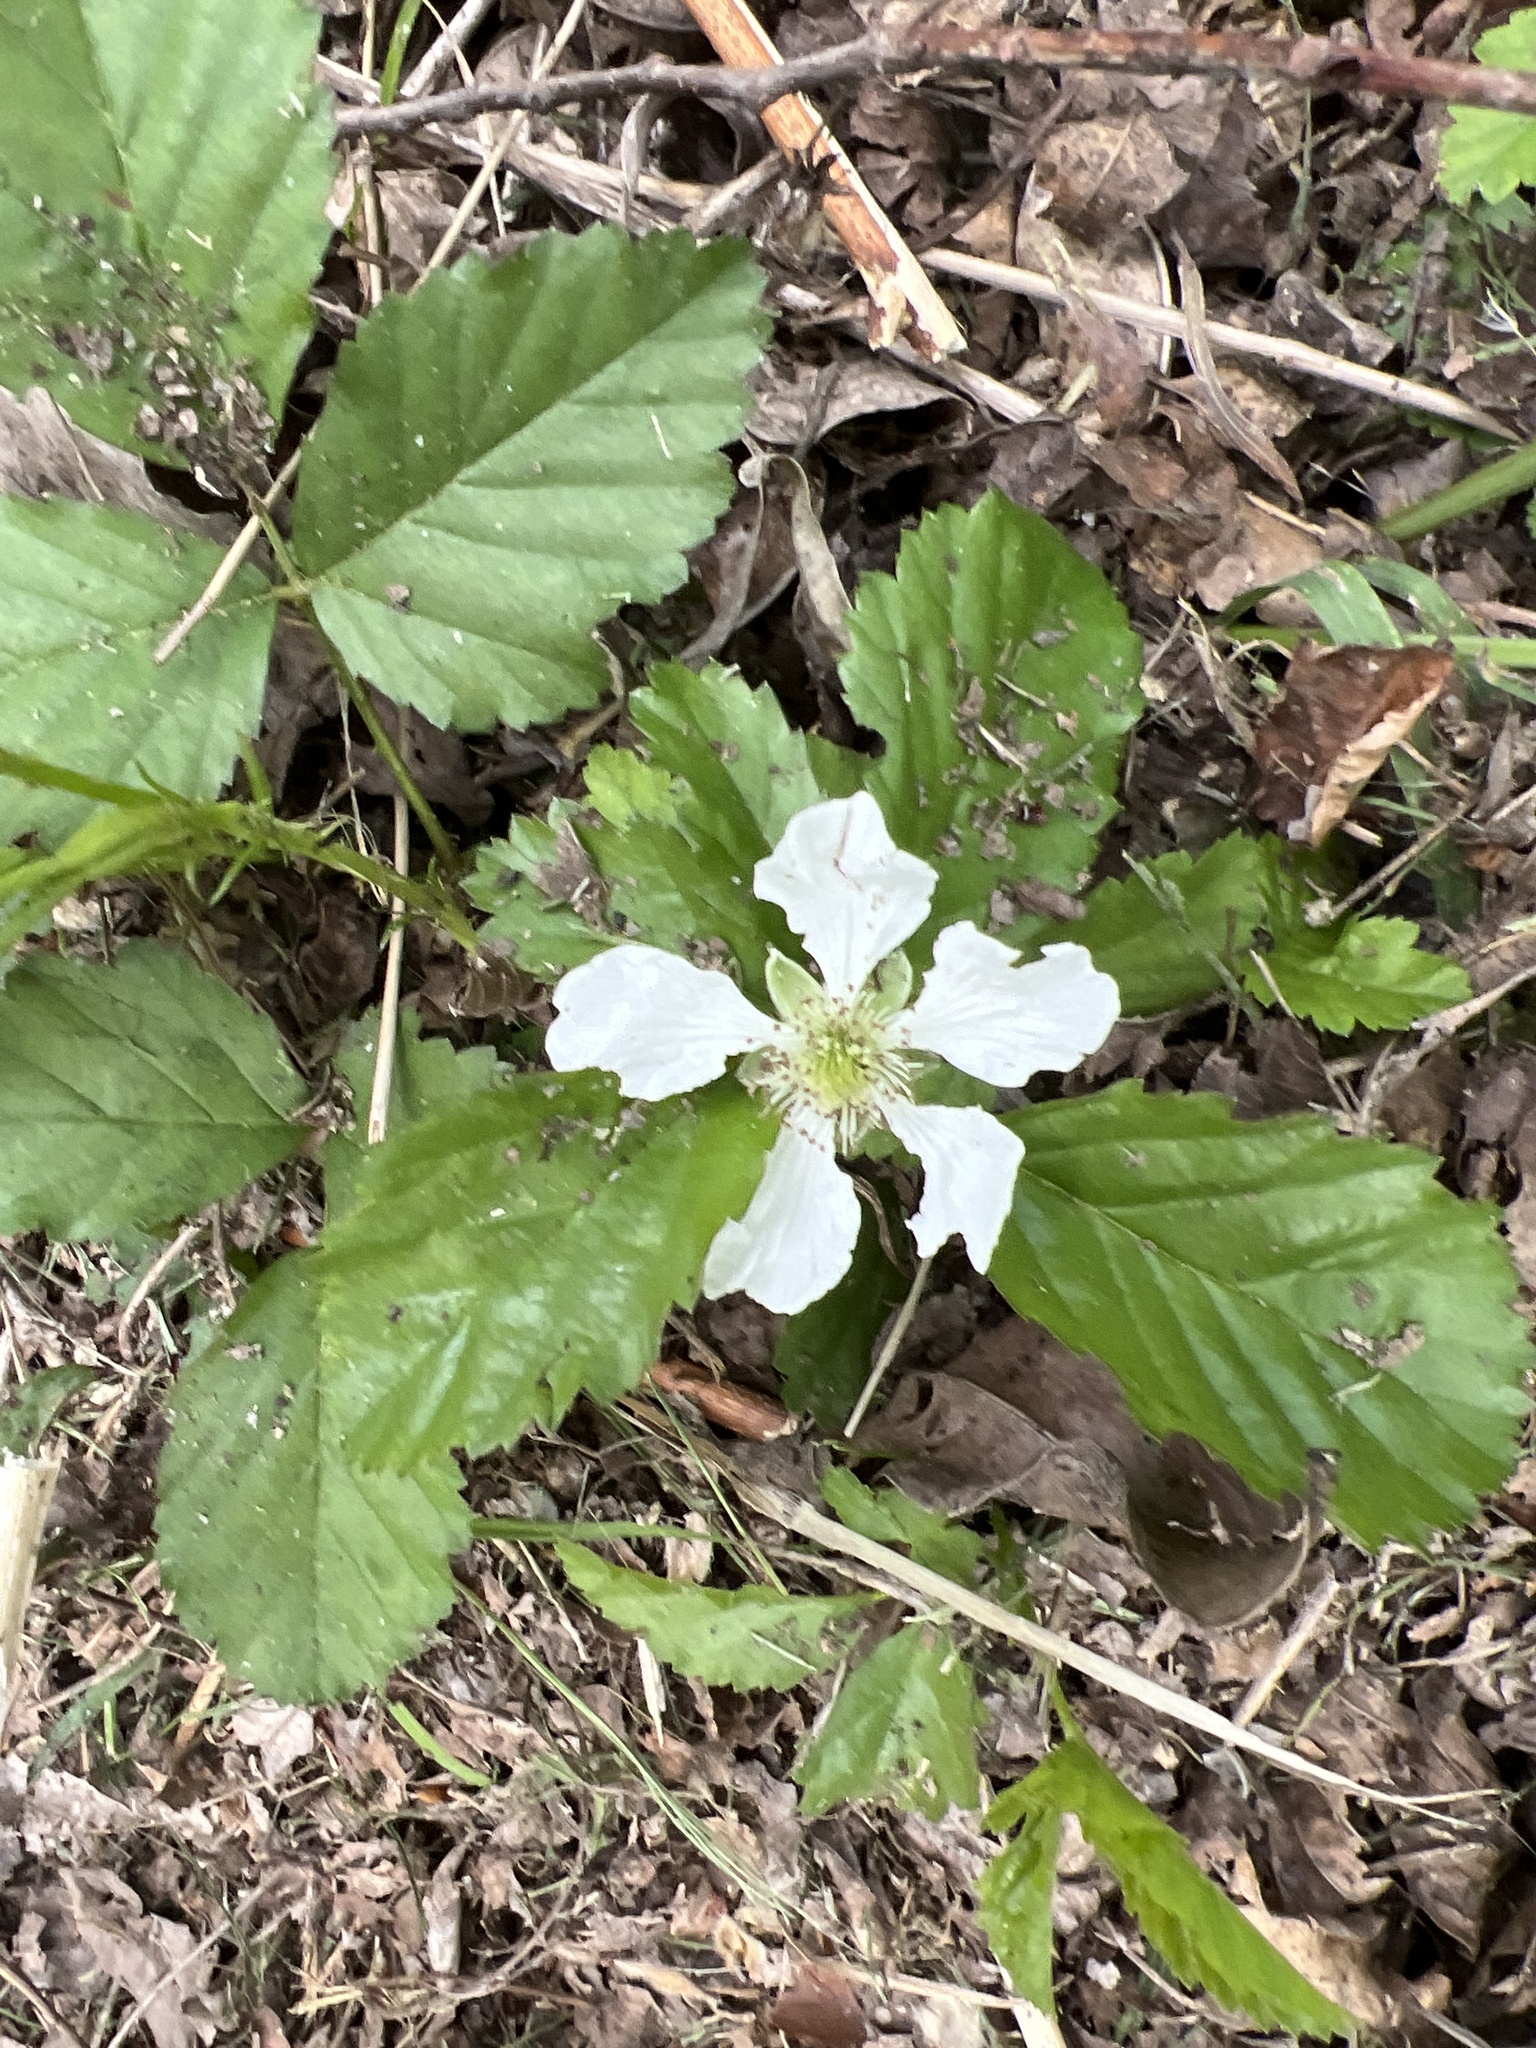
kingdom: Plantae
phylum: Tracheophyta
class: Magnoliopsida
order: Rosales
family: Rosaceae
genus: Rubus
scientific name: Rubus trivialis
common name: Southern dewberry
